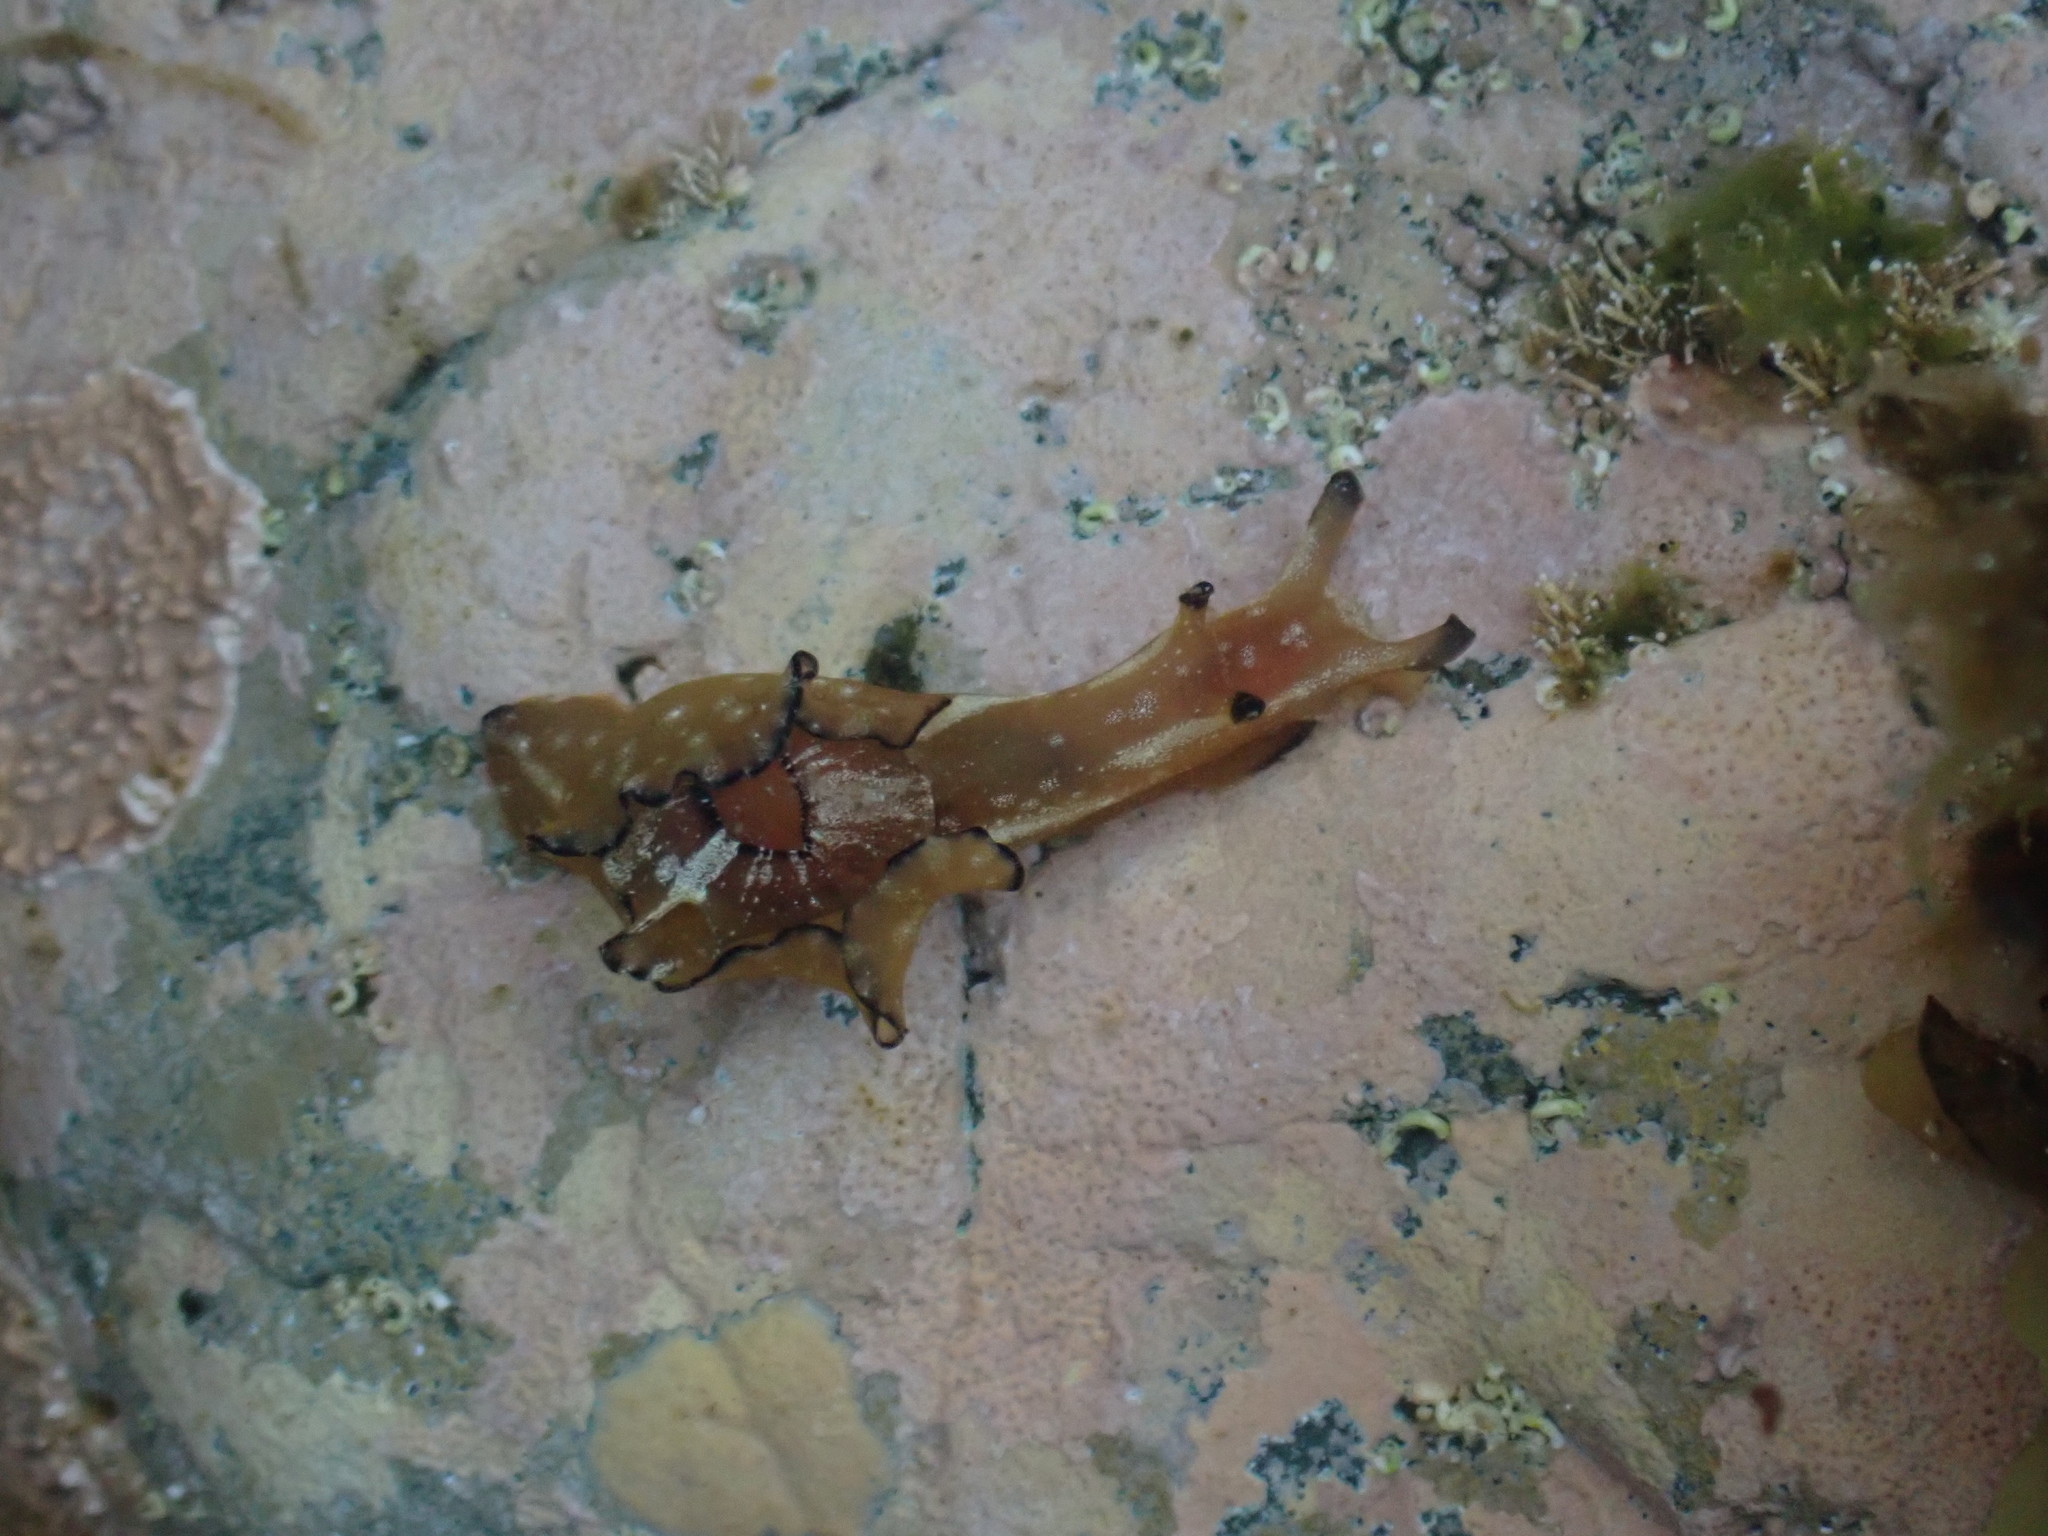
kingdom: Animalia
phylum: Mollusca
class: Gastropoda
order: Aplysiida
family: Aplysiidae
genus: Aplysia
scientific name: Aplysia concava
